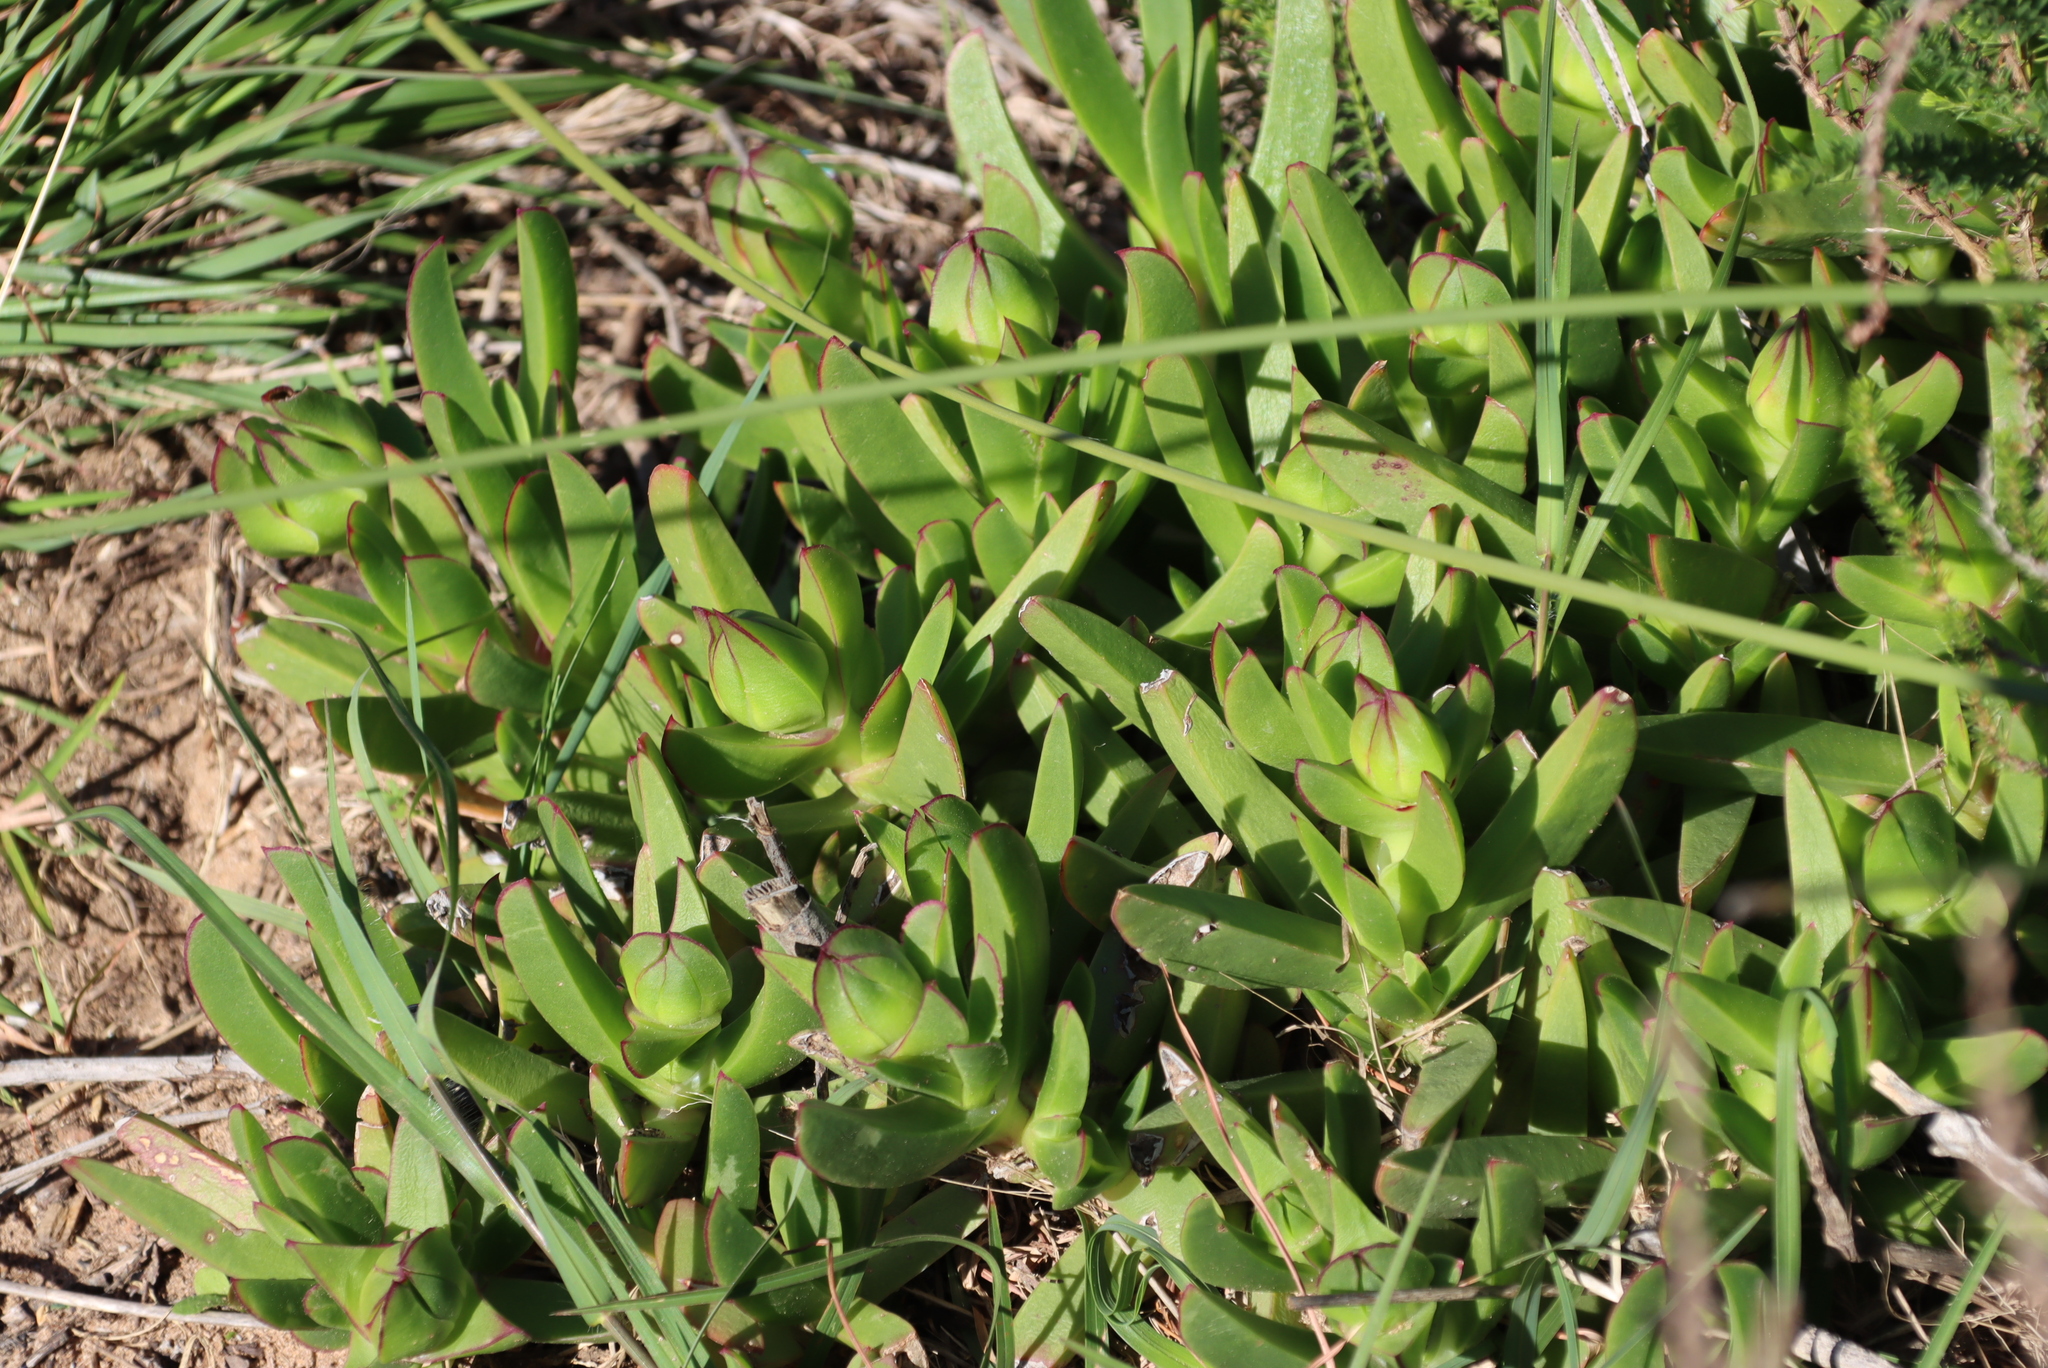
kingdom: Plantae
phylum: Tracheophyta
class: Magnoliopsida
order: Caryophyllales
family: Aizoaceae
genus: Carpobrotus
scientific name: Carpobrotus deliciosus
